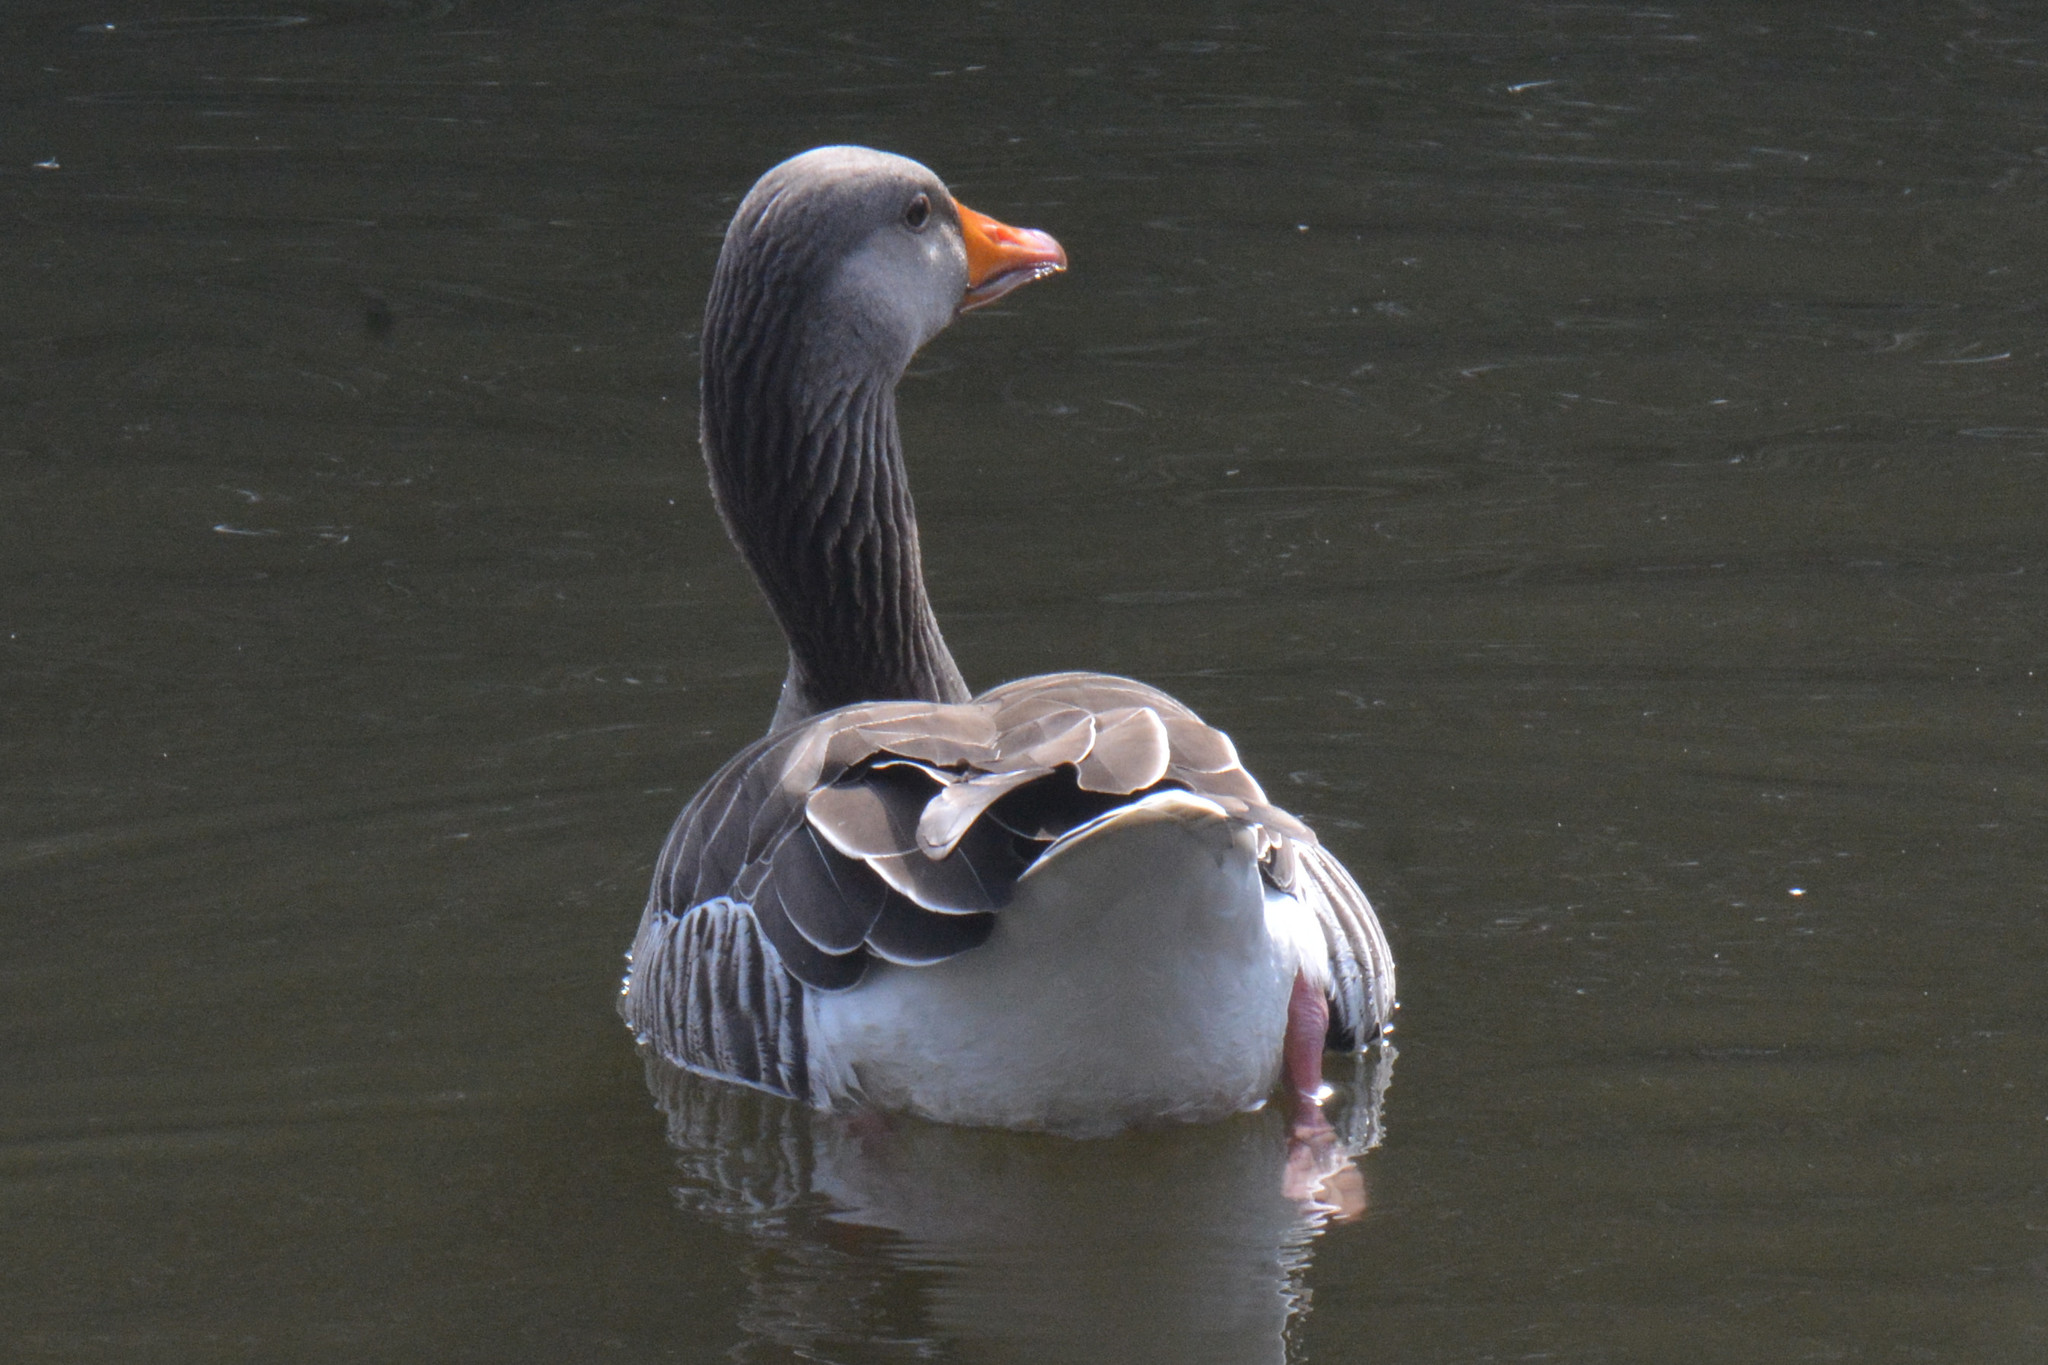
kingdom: Animalia
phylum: Chordata
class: Aves
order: Anseriformes
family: Anatidae
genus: Anser
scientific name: Anser anser
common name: Greylag goose
